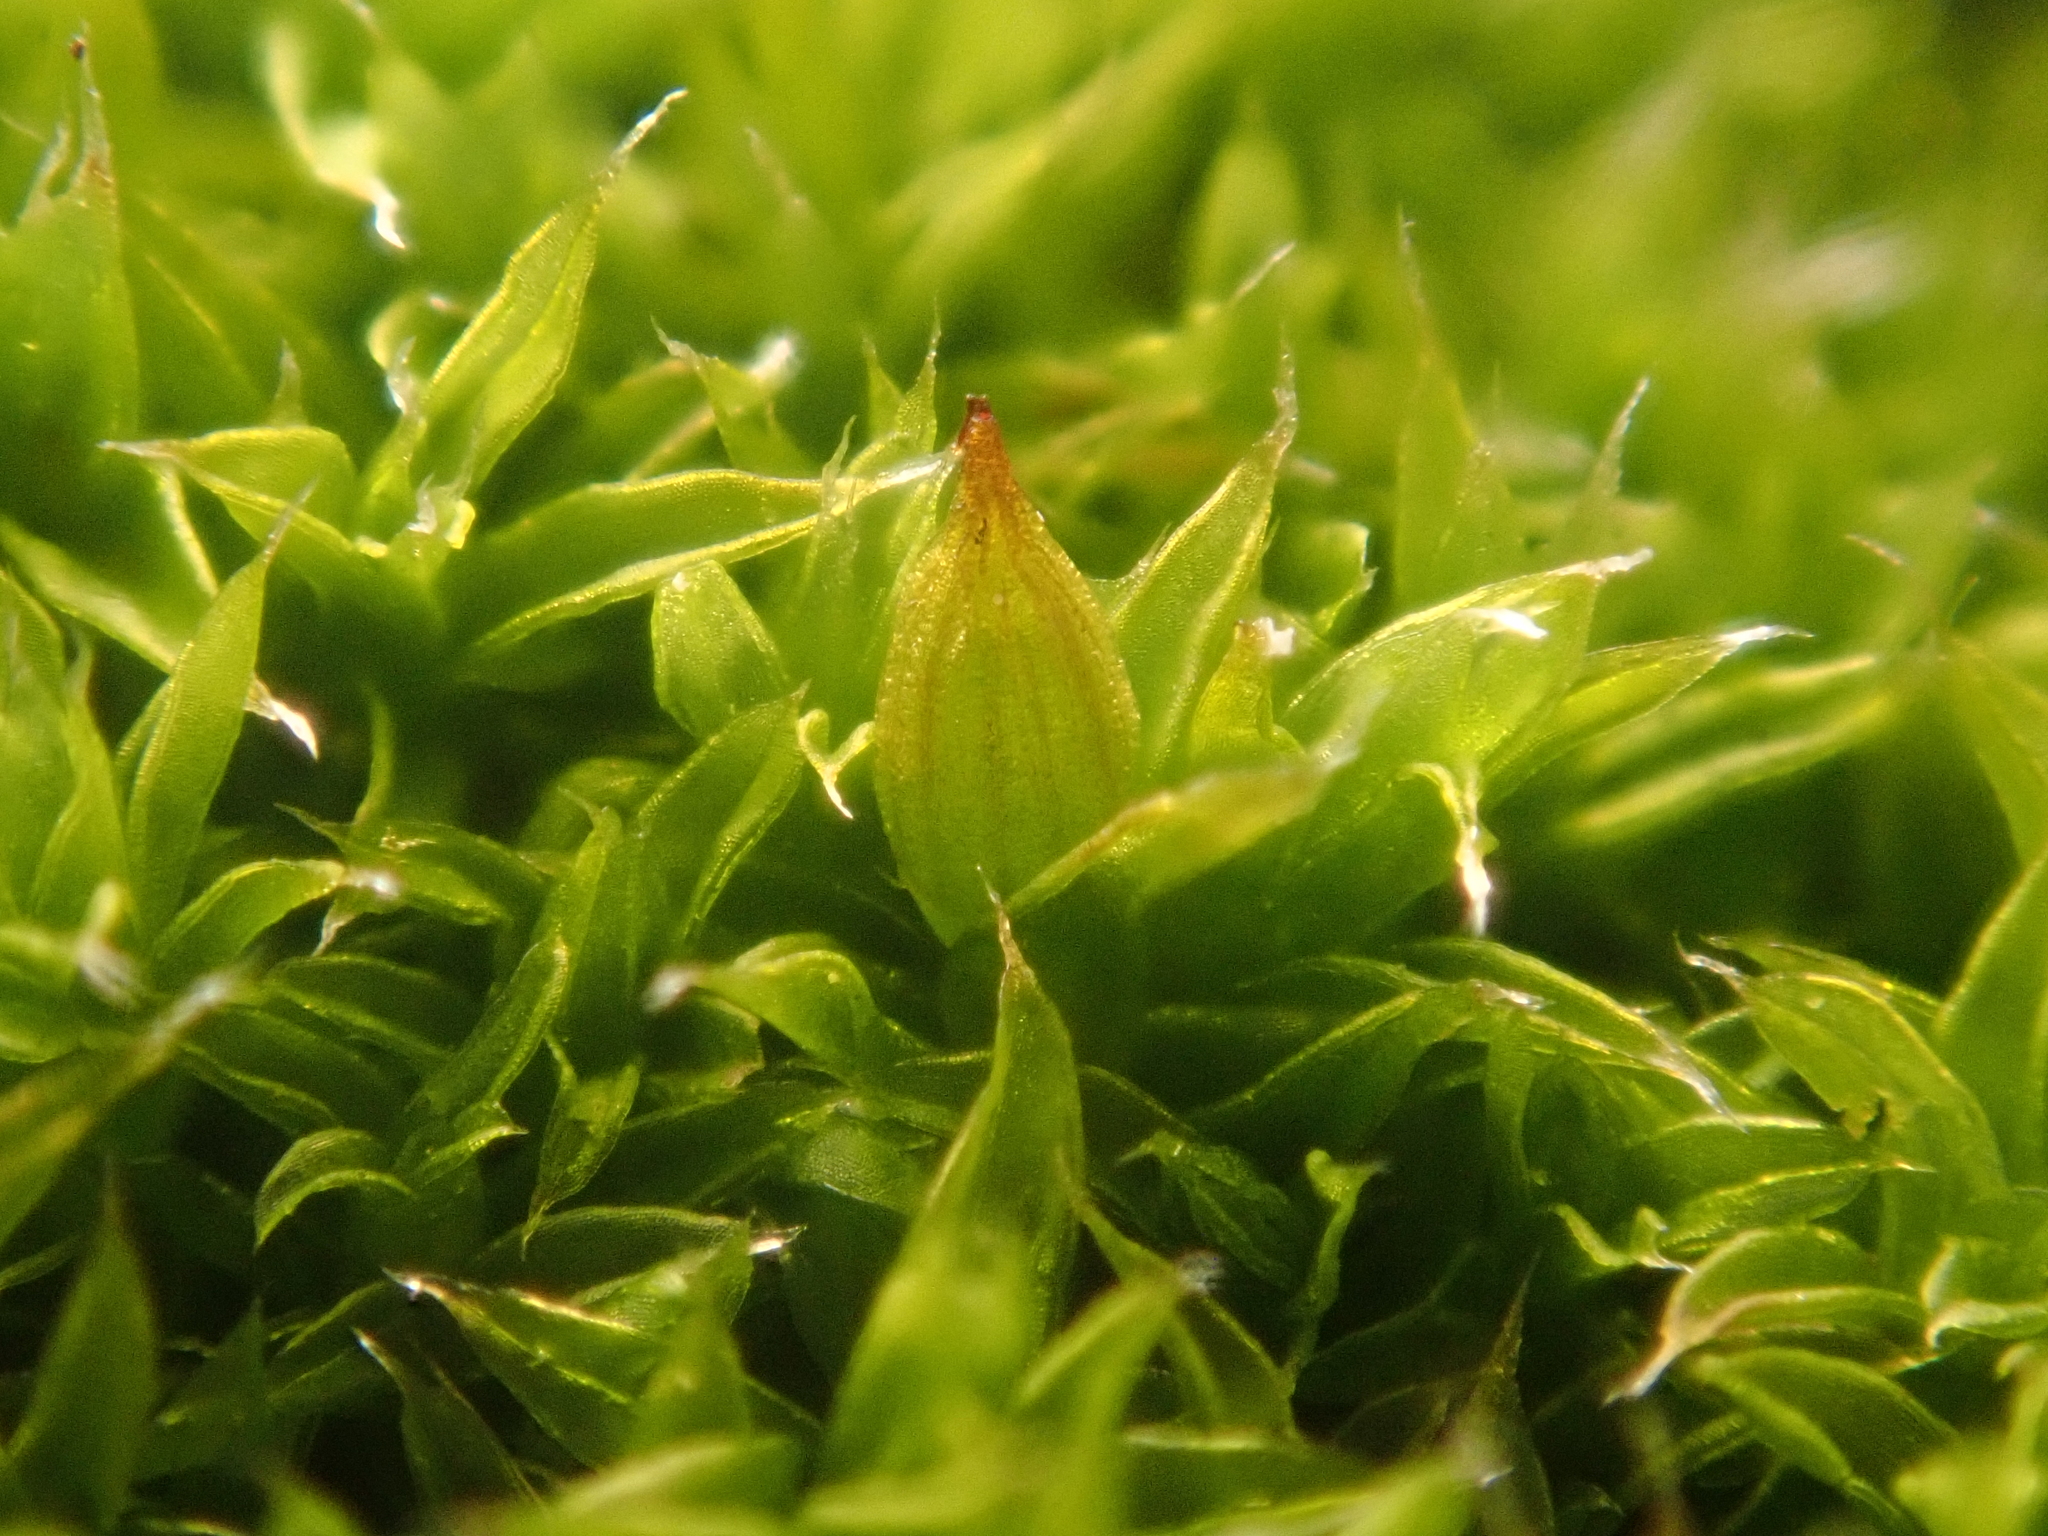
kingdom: Plantae
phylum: Bryophyta
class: Bryopsida
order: Orthotrichales
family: Orthotrichaceae
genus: Orthotrichum
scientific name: Orthotrichum diaphanum
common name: White-tipped bristle-moss
